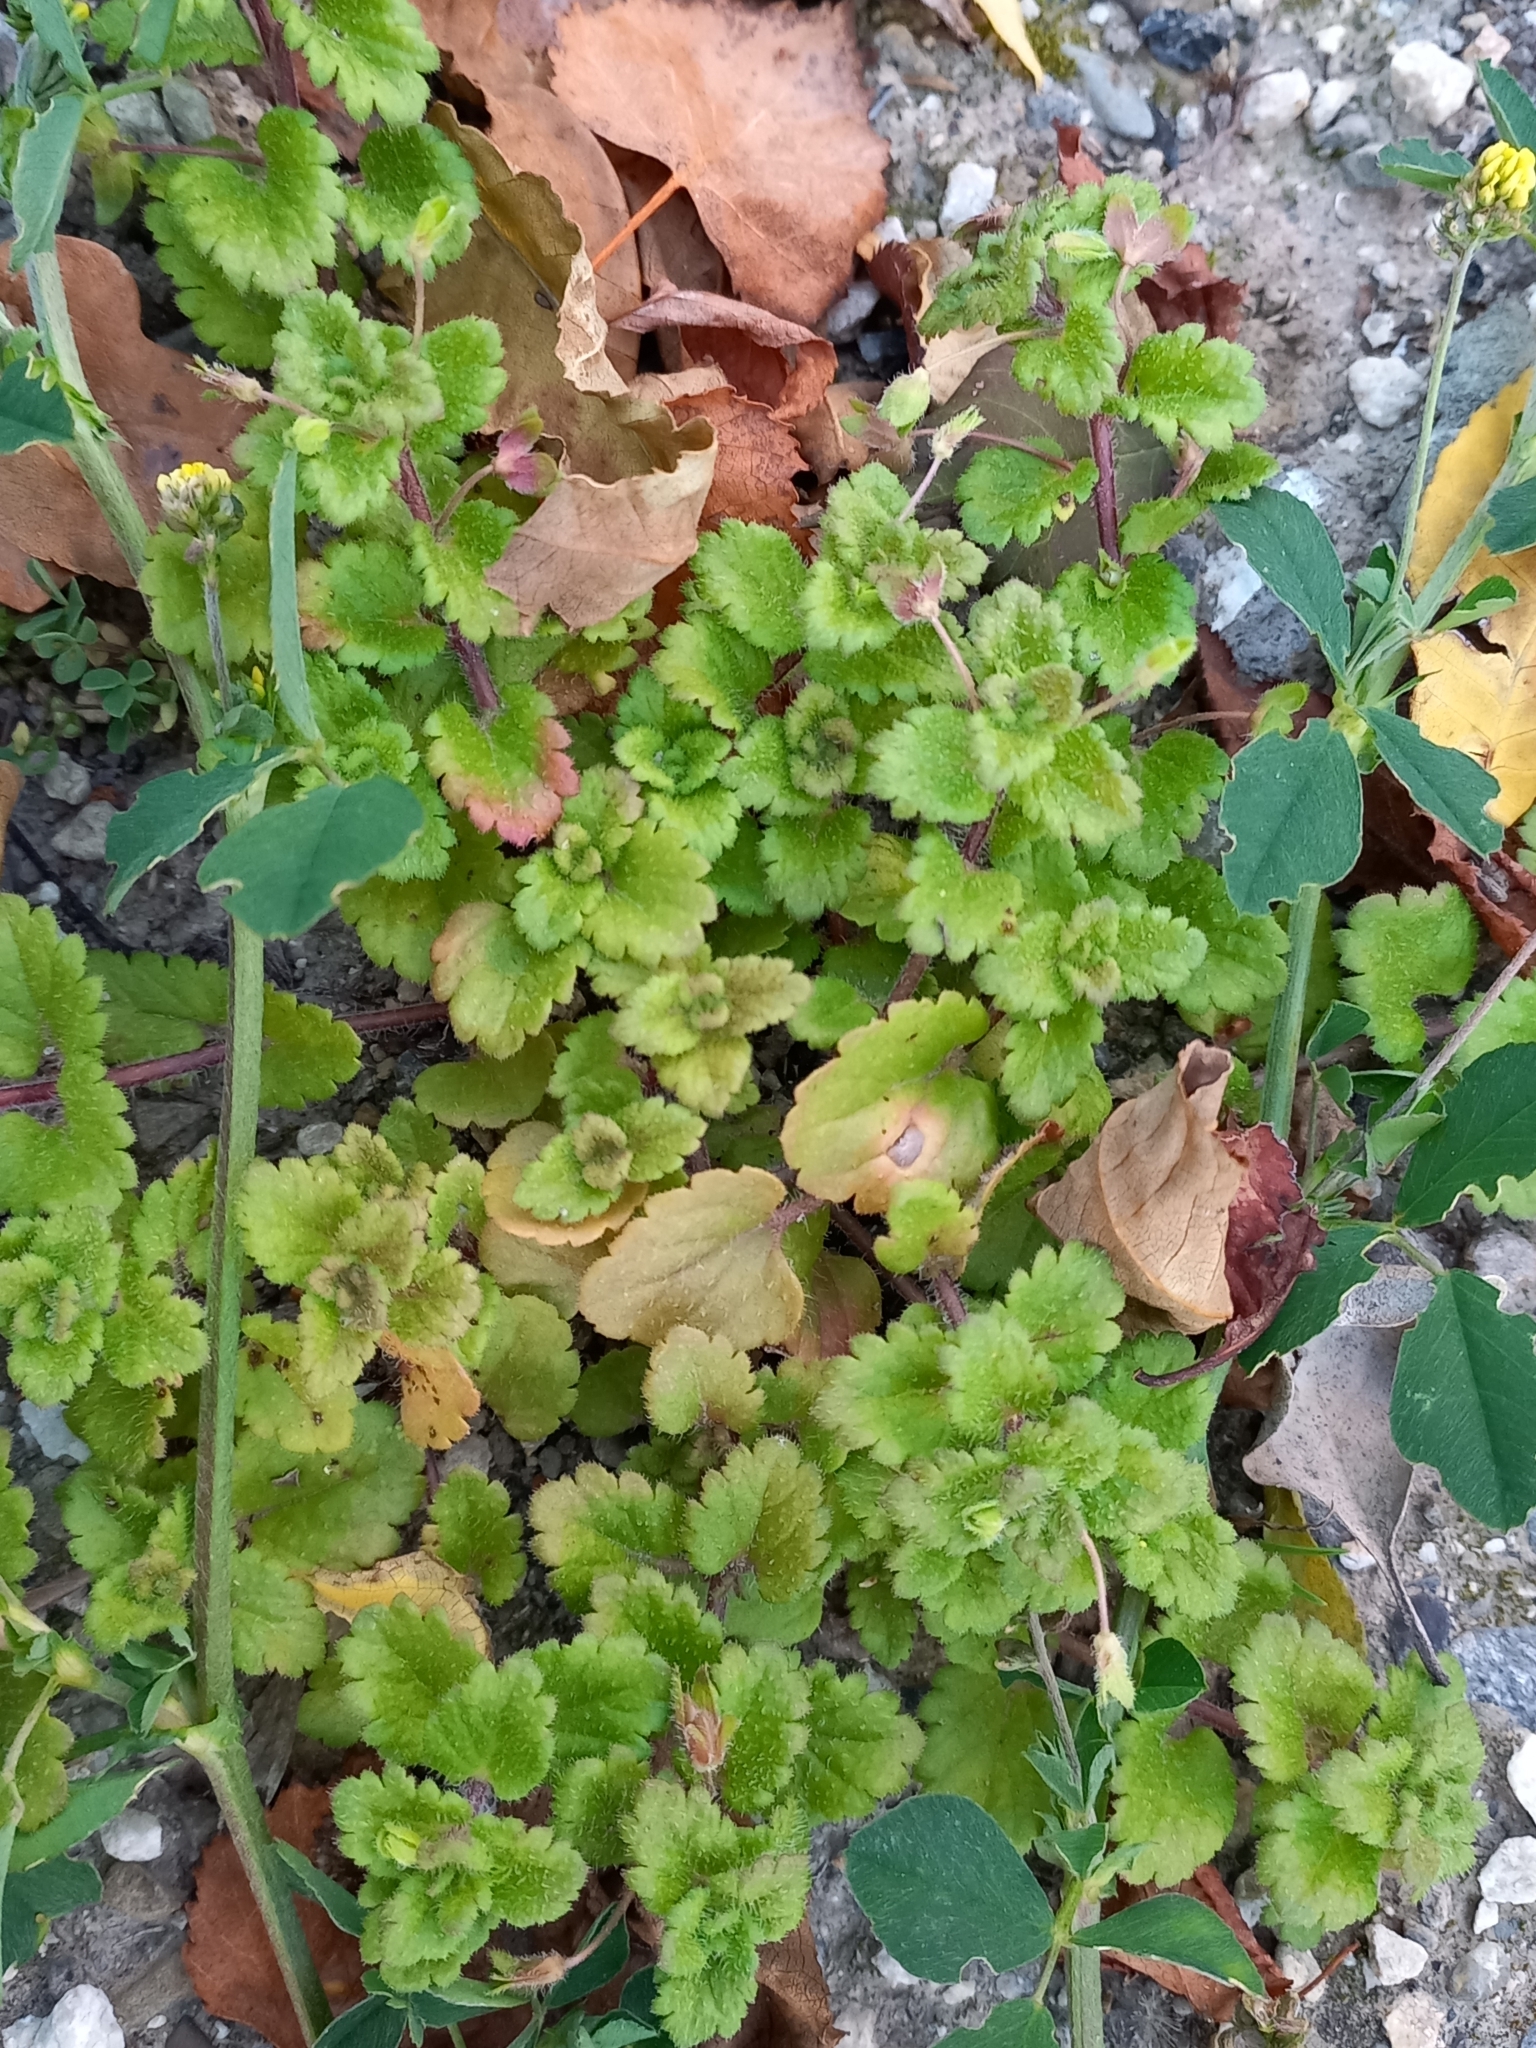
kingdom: Plantae
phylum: Tracheophyta
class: Magnoliopsida
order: Lamiales
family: Plantaginaceae
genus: Veronica
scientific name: Veronica persica
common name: Common field-speedwell
